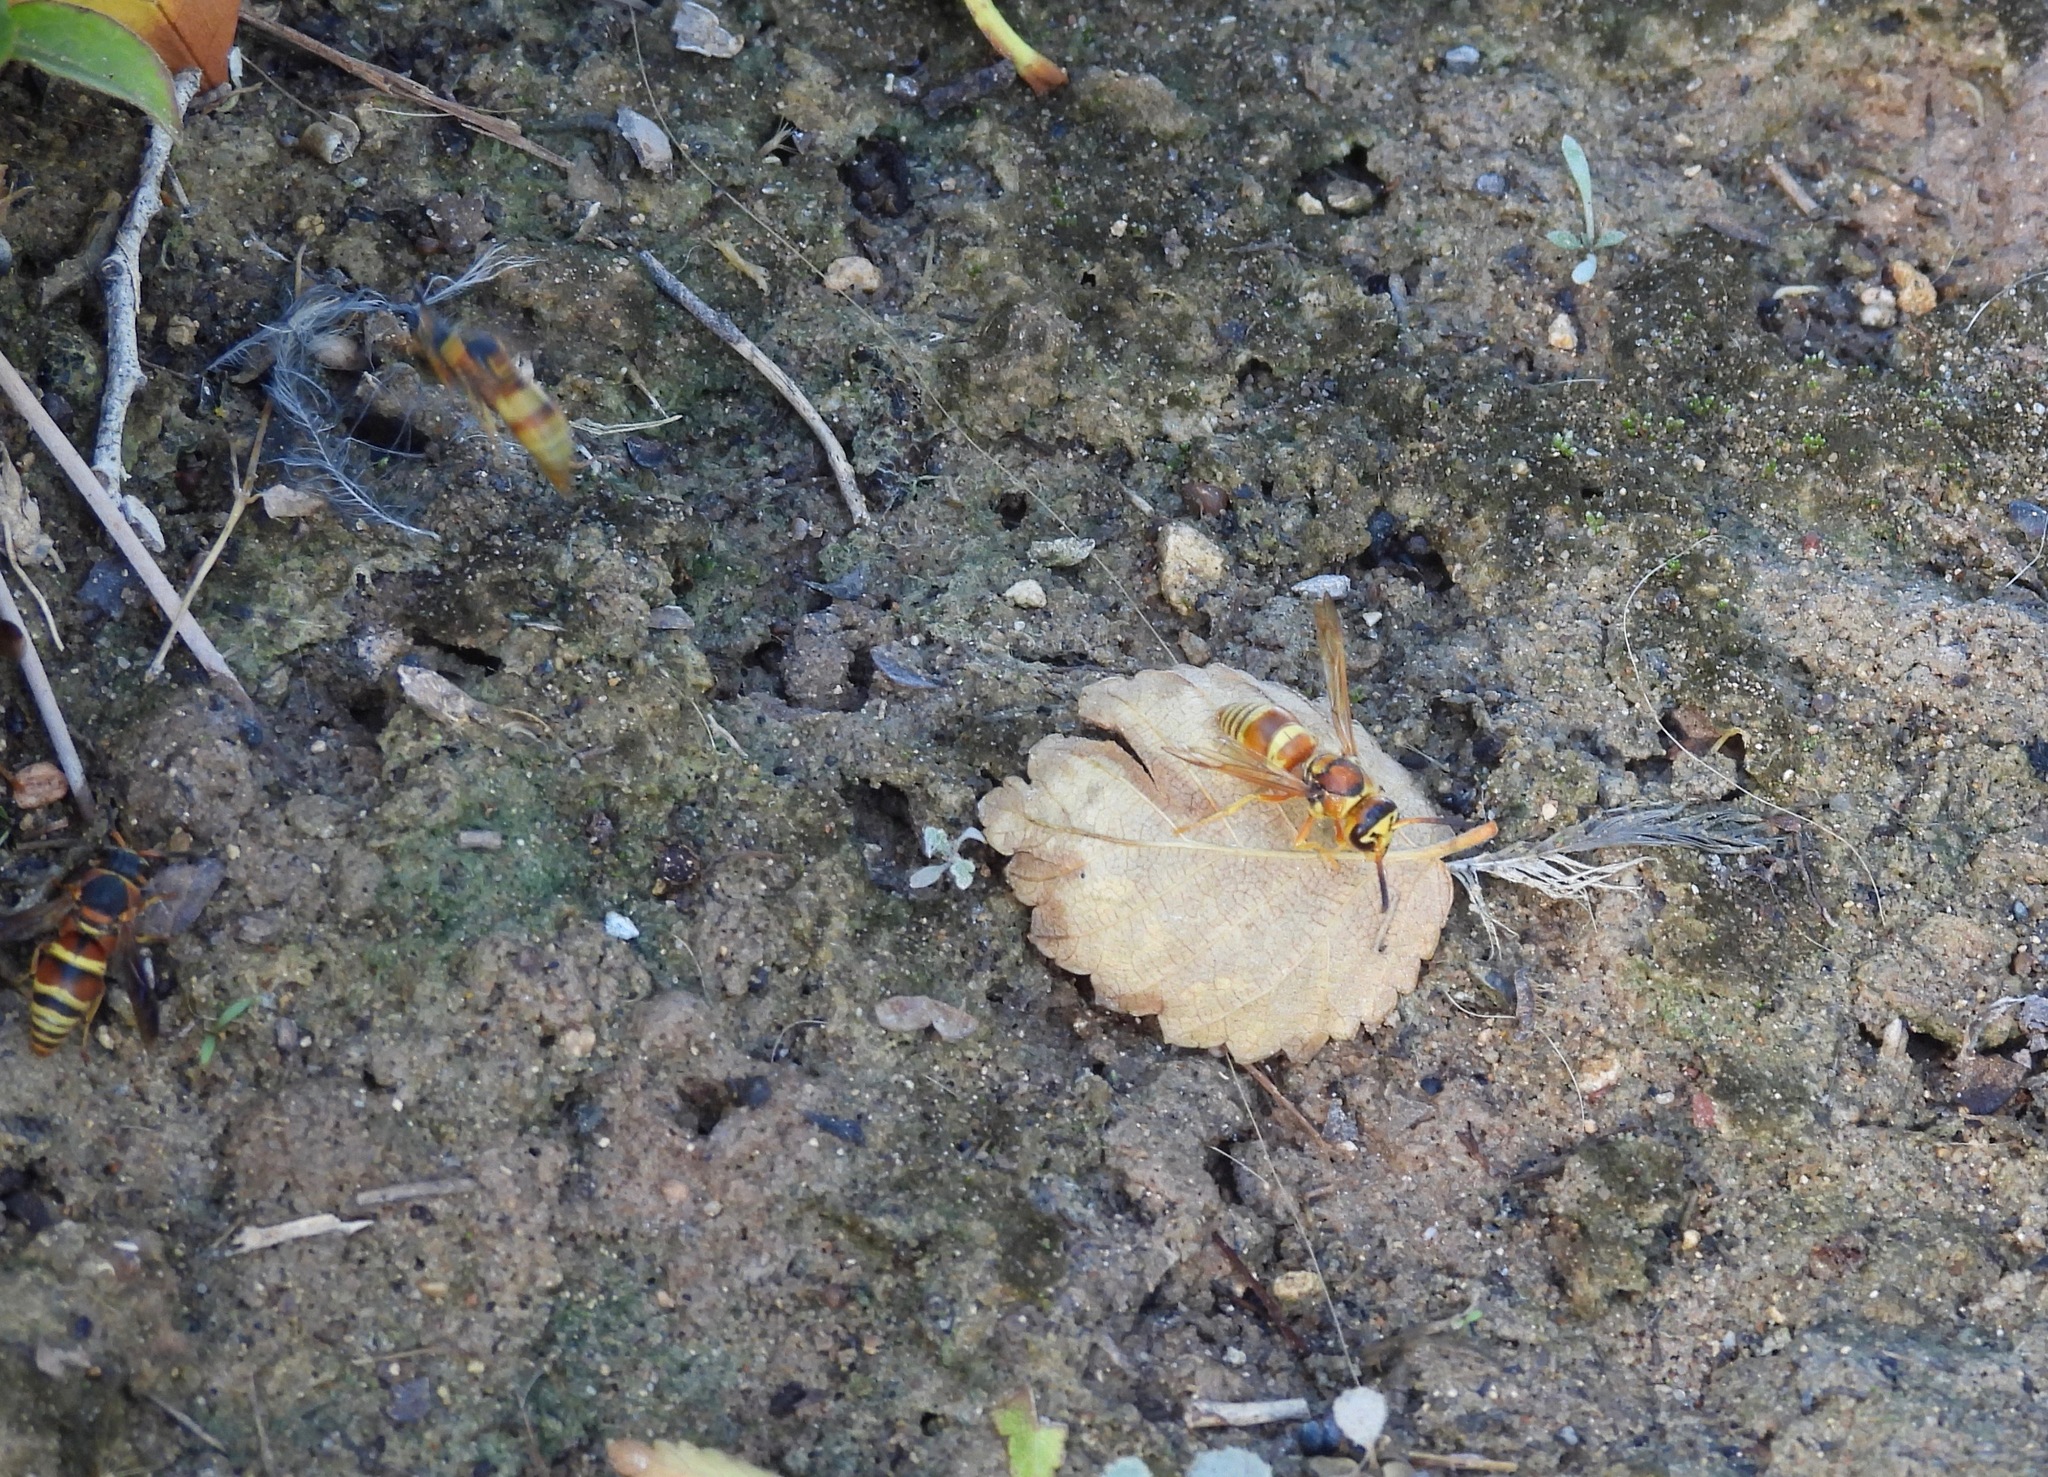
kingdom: Animalia
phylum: Arthropoda
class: Insecta
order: Hymenoptera
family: Eumenidae
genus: Euodynerus
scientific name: Euodynerus pratensis
